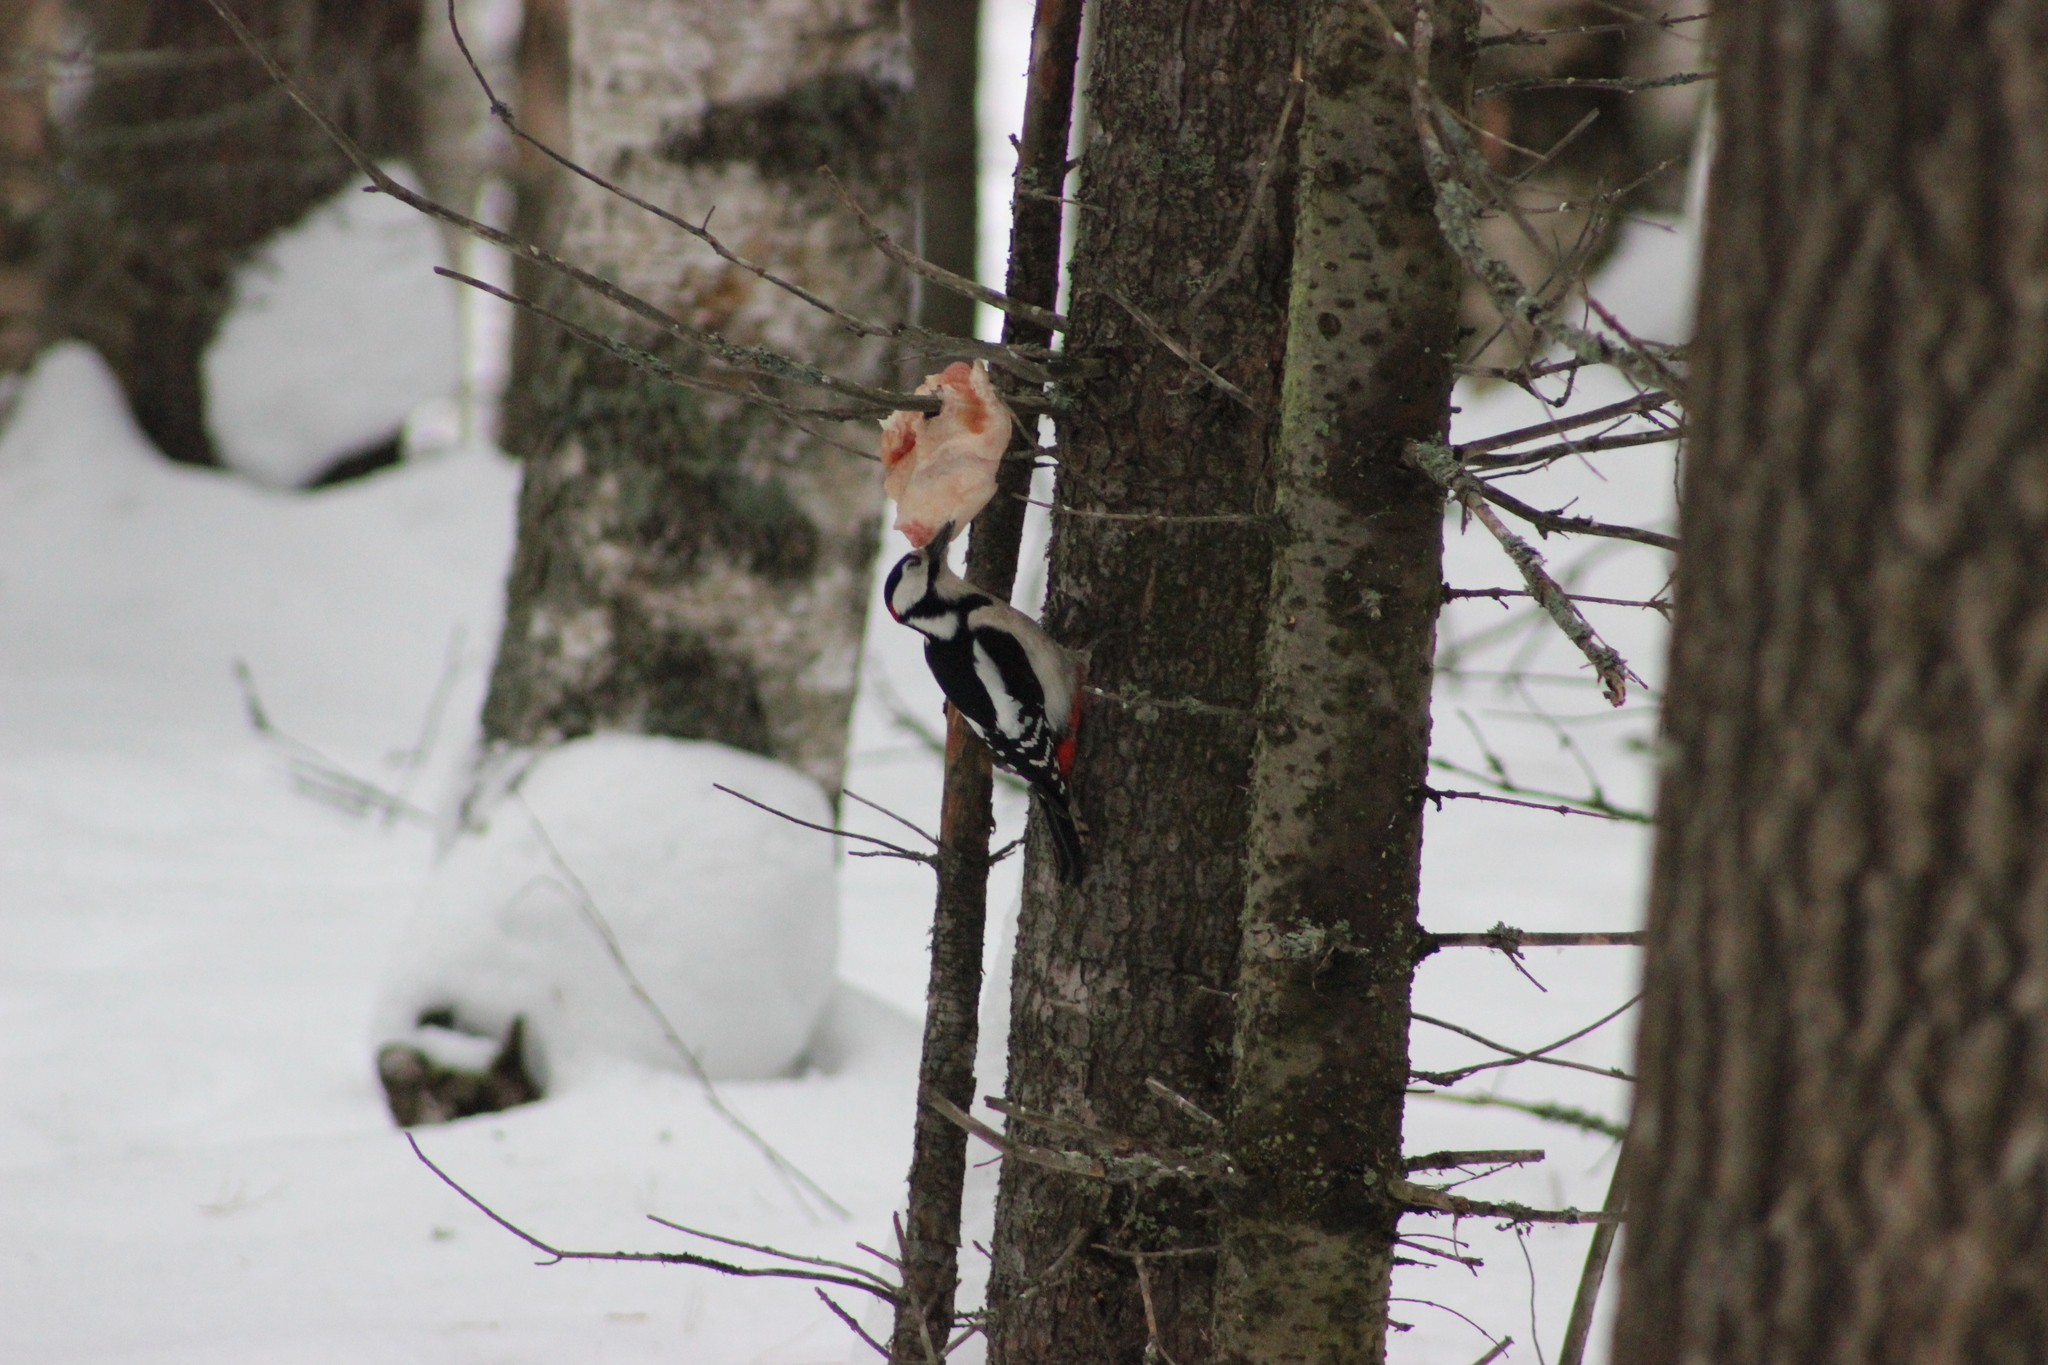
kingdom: Animalia
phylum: Chordata
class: Aves
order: Piciformes
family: Picidae
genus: Dendrocopos
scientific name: Dendrocopos major
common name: Great spotted woodpecker
